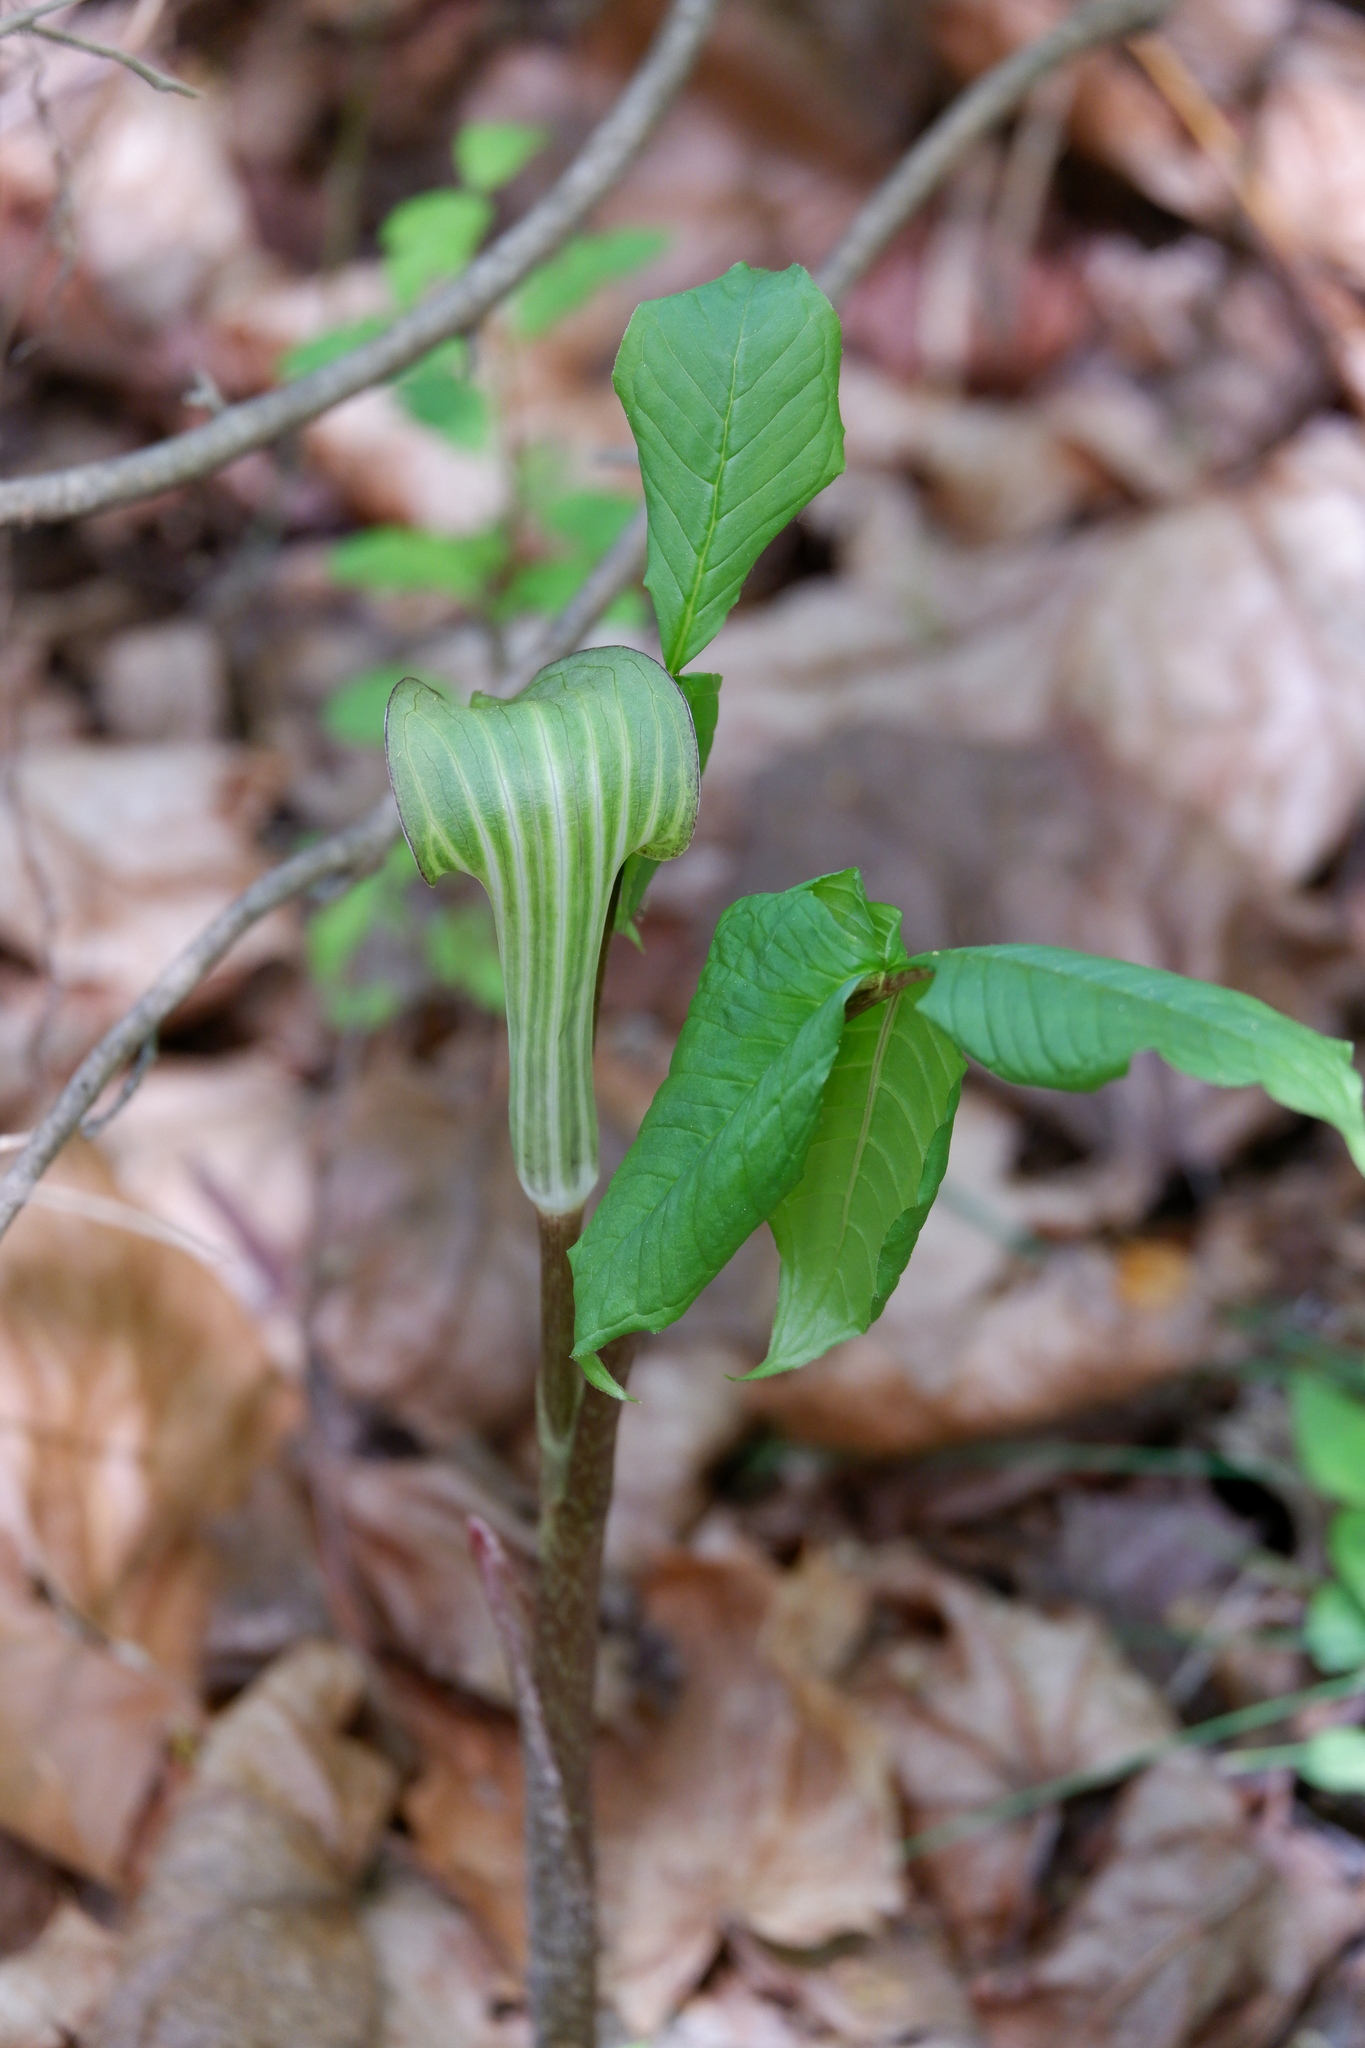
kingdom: Plantae
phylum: Tracheophyta
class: Liliopsida
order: Alismatales
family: Araceae
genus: Arisaema
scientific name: Arisaema triphyllum
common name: Jack-in-the-pulpit
